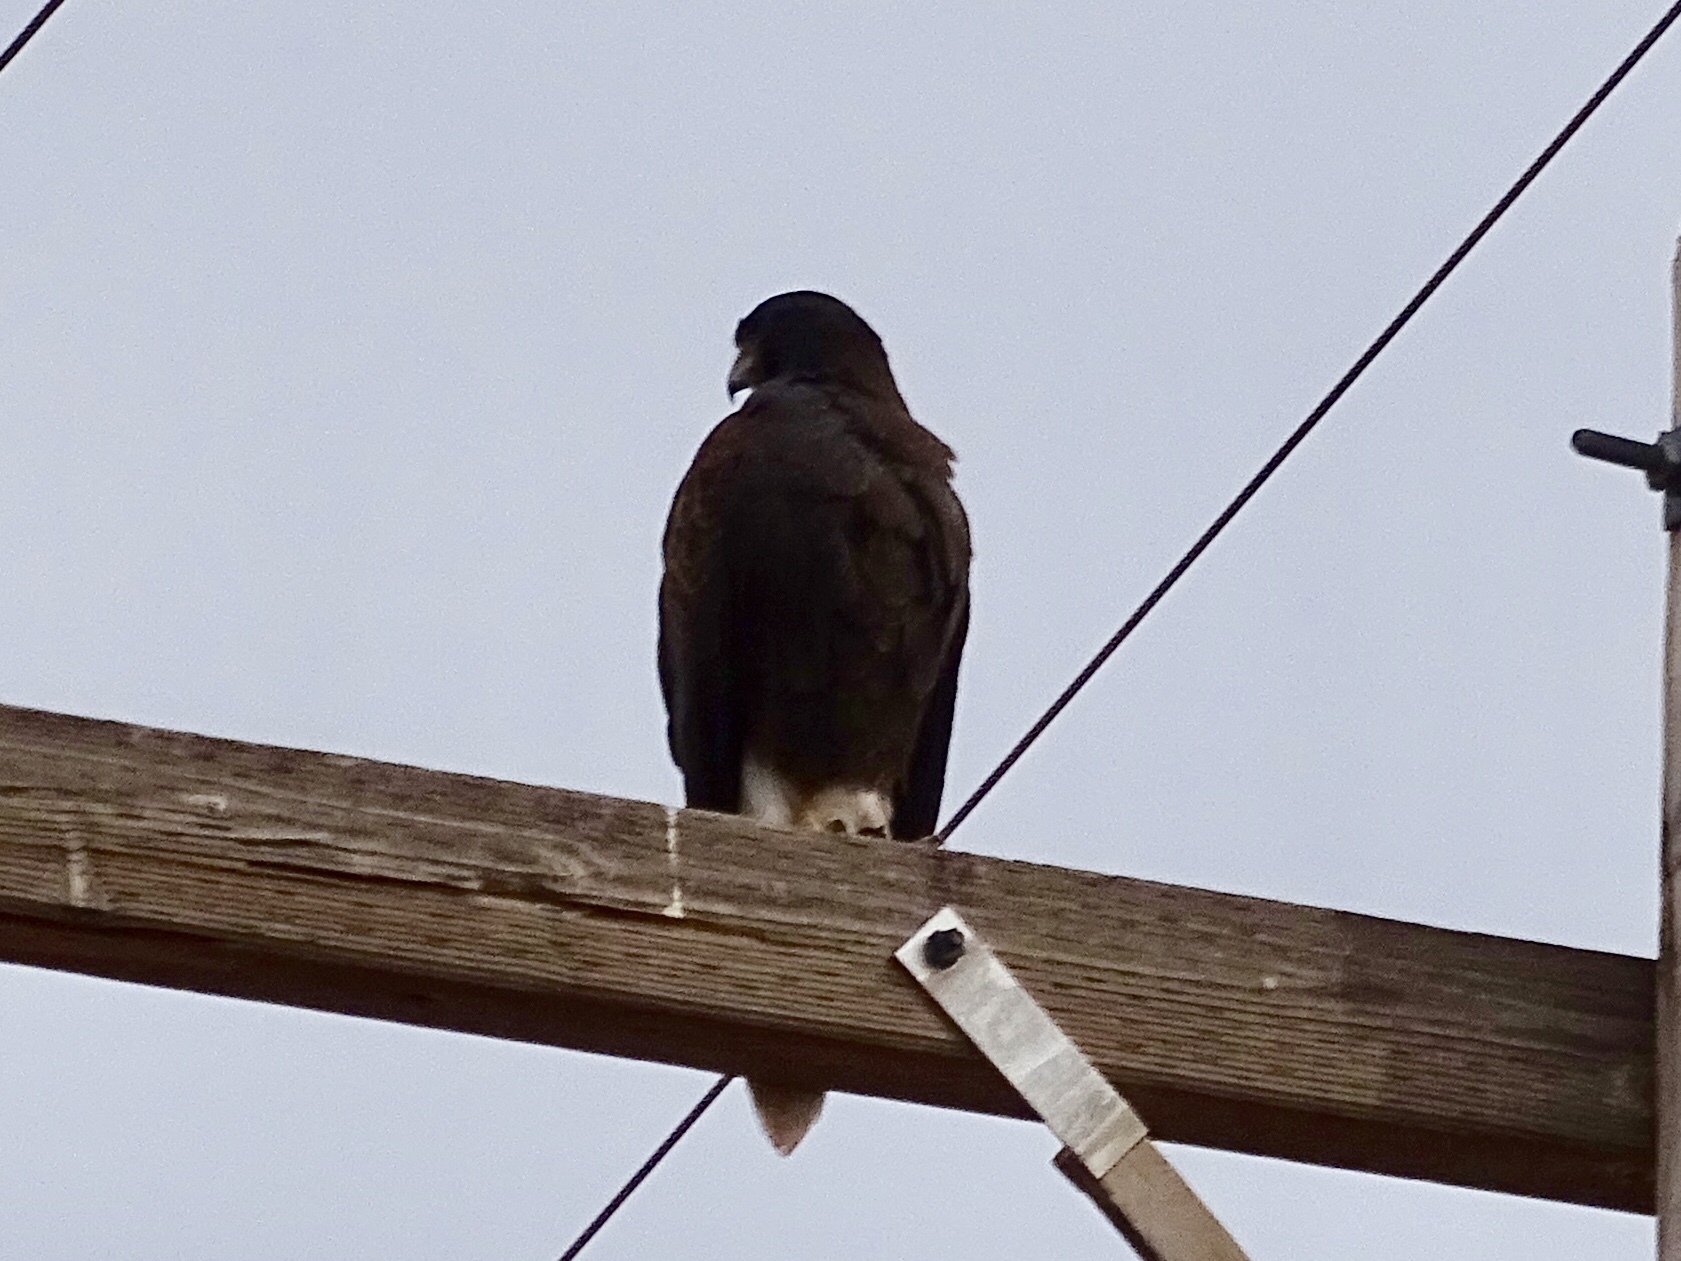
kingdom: Animalia
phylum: Chordata
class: Aves
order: Accipitriformes
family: Accipitridae
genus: Parabuteo
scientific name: Parabuteo unicinctus
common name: Harris's hawk
